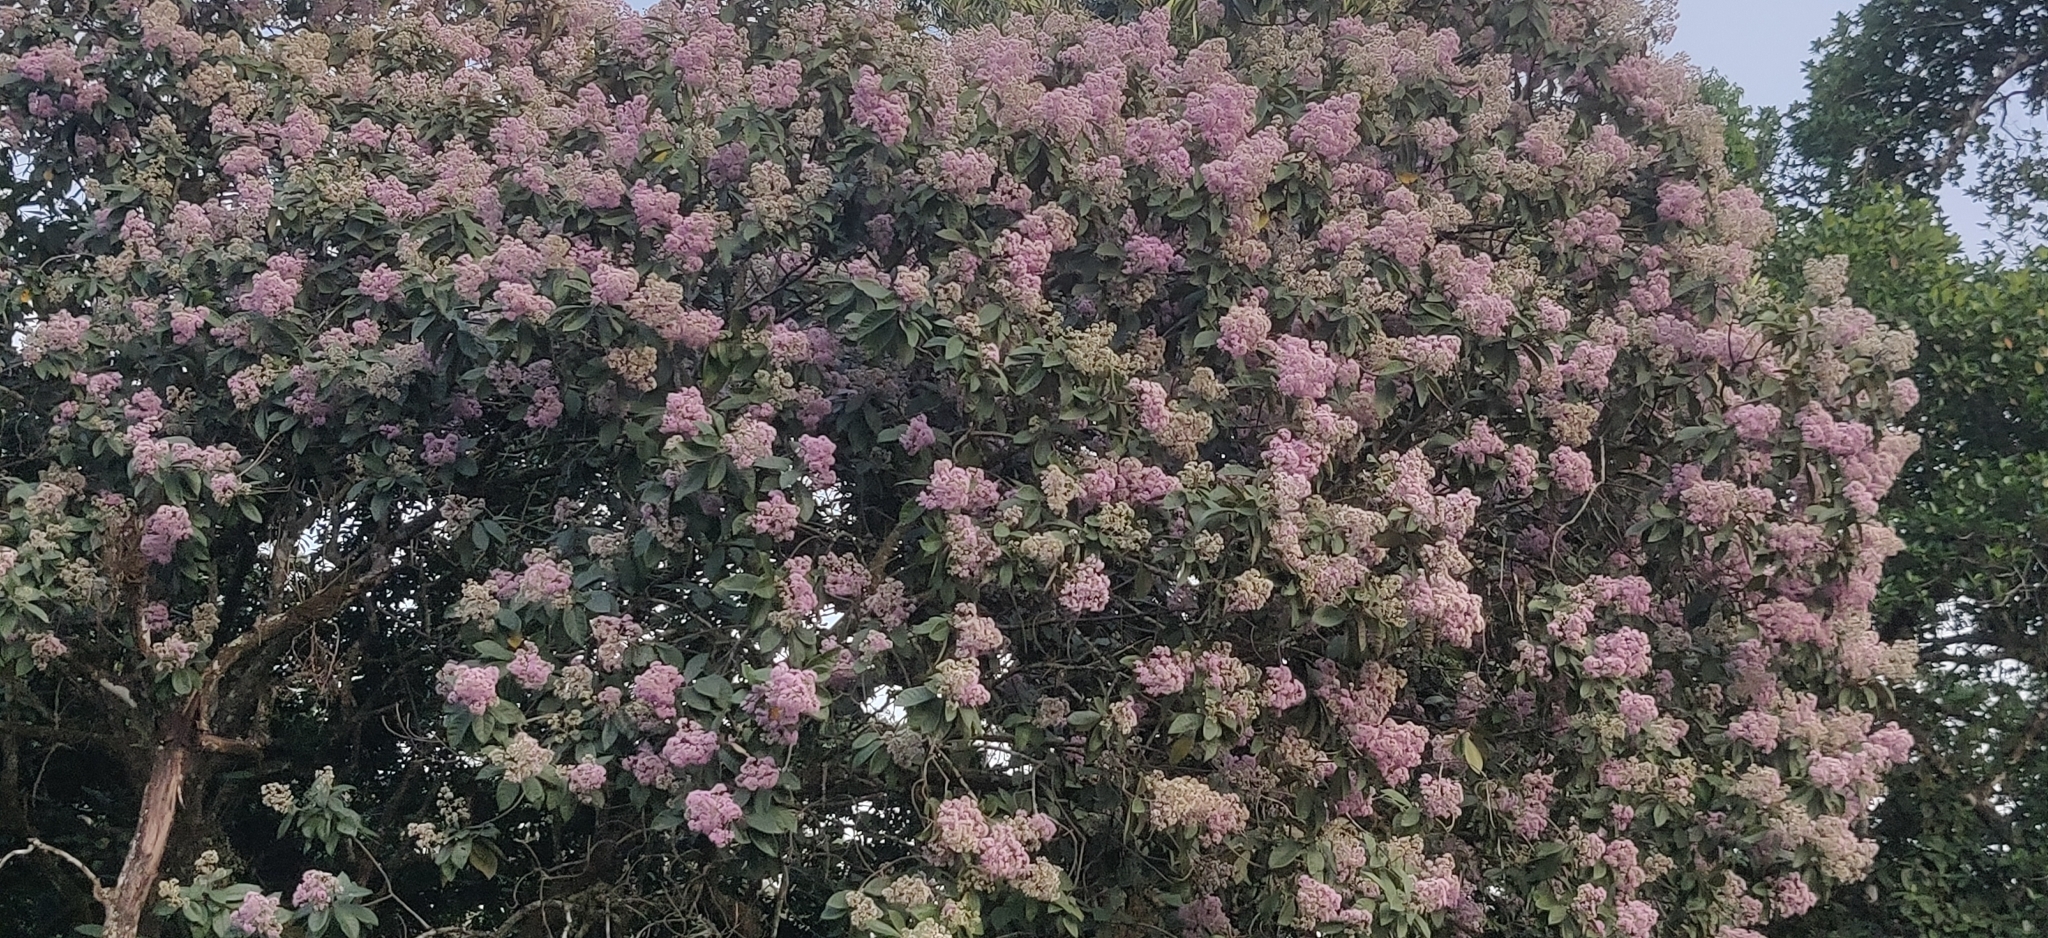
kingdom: Plantae
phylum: Tracheophyta
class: Magnoliopsida
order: Asterales
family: Asteraceae
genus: Strobocalyx
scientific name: Strobocalyx arborea
